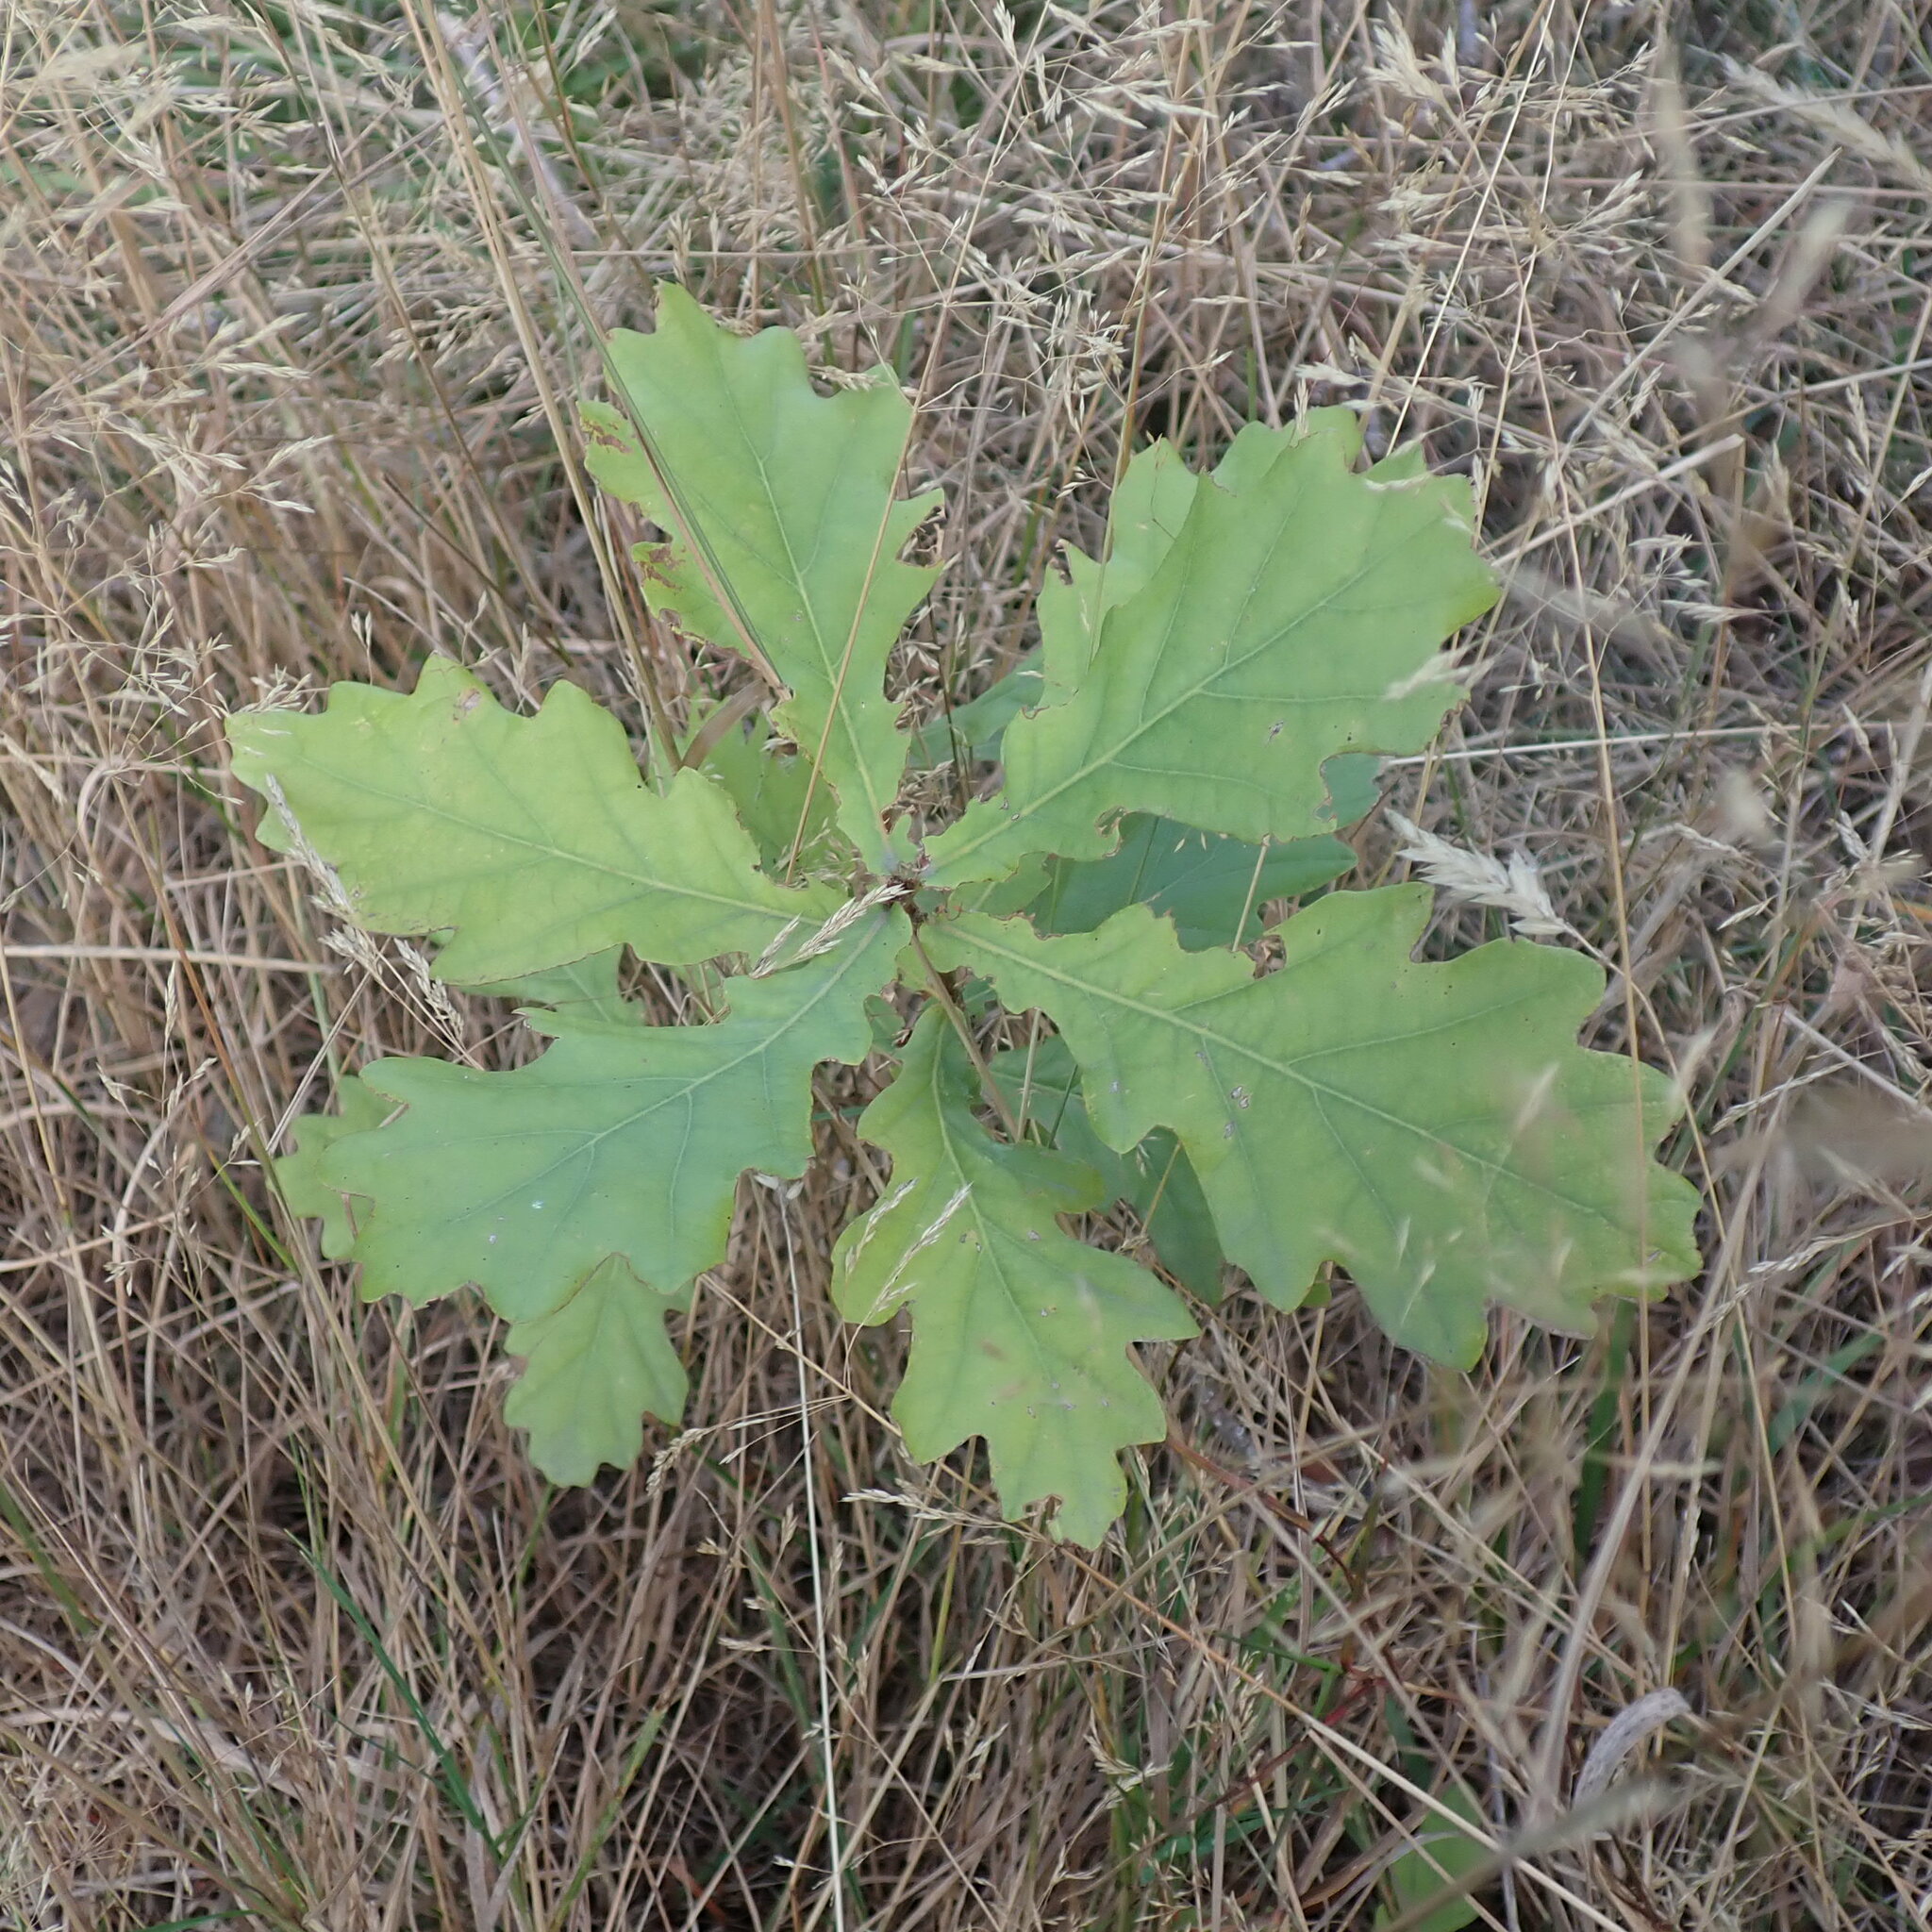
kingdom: Plantae
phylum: Tracheophyta
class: Magnoliopsida
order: Fagales
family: Fagaceae
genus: Quercus
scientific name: Quercus robur
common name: Pedunculate oak
